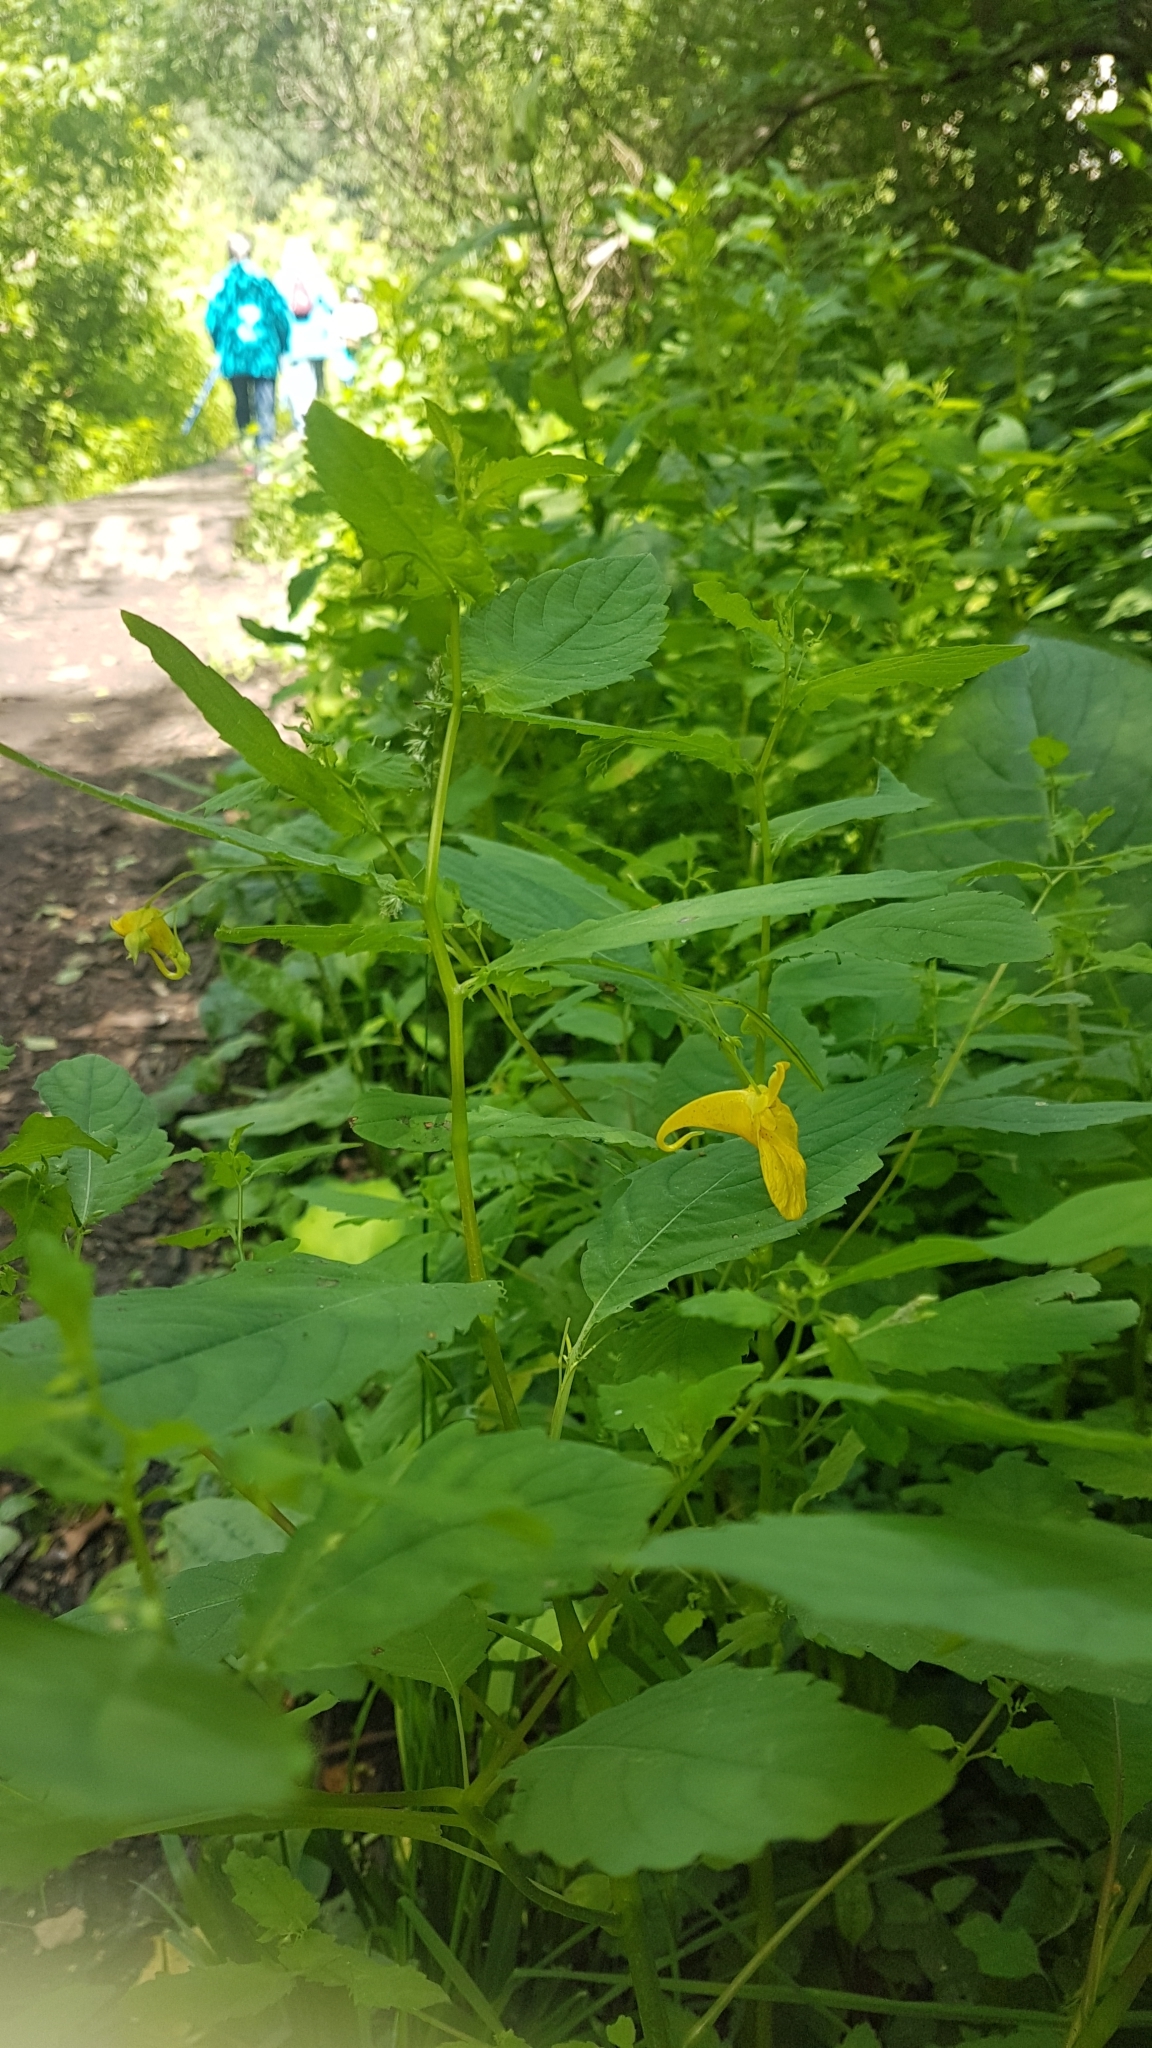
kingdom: Plantae
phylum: Tracheophyta
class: Magnoliopsida
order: Ericales
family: Balsaminaceae
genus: Impatiens
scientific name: Impatiens noli-tangere
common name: Touch-me-not balsam
